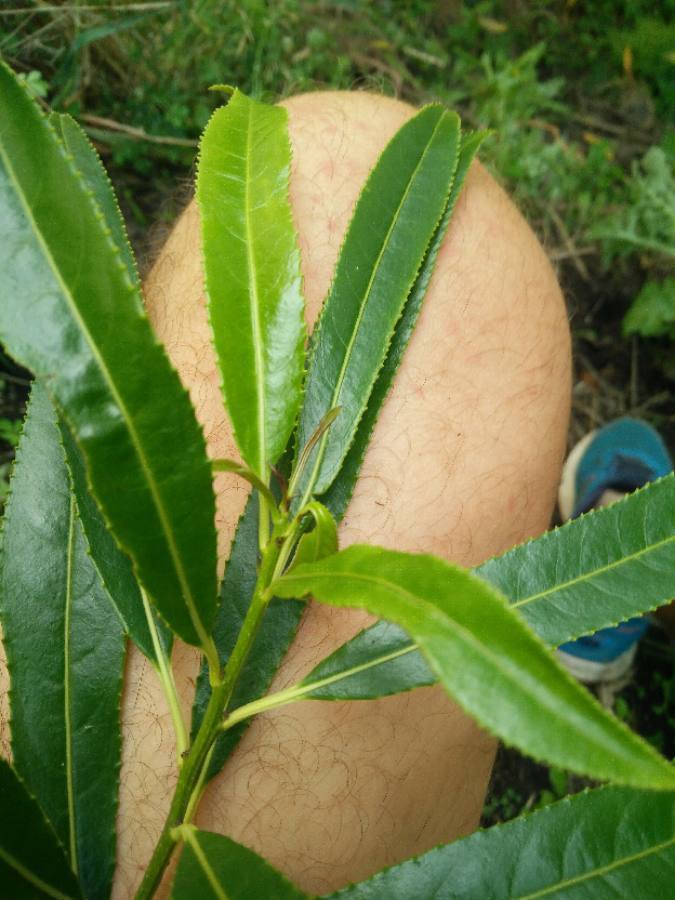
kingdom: Plantae
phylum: Tracheophyta
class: Magnoliopsida
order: Malpighiales
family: Violaceae
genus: Melicytus
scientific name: Melicytus lanceolatus
